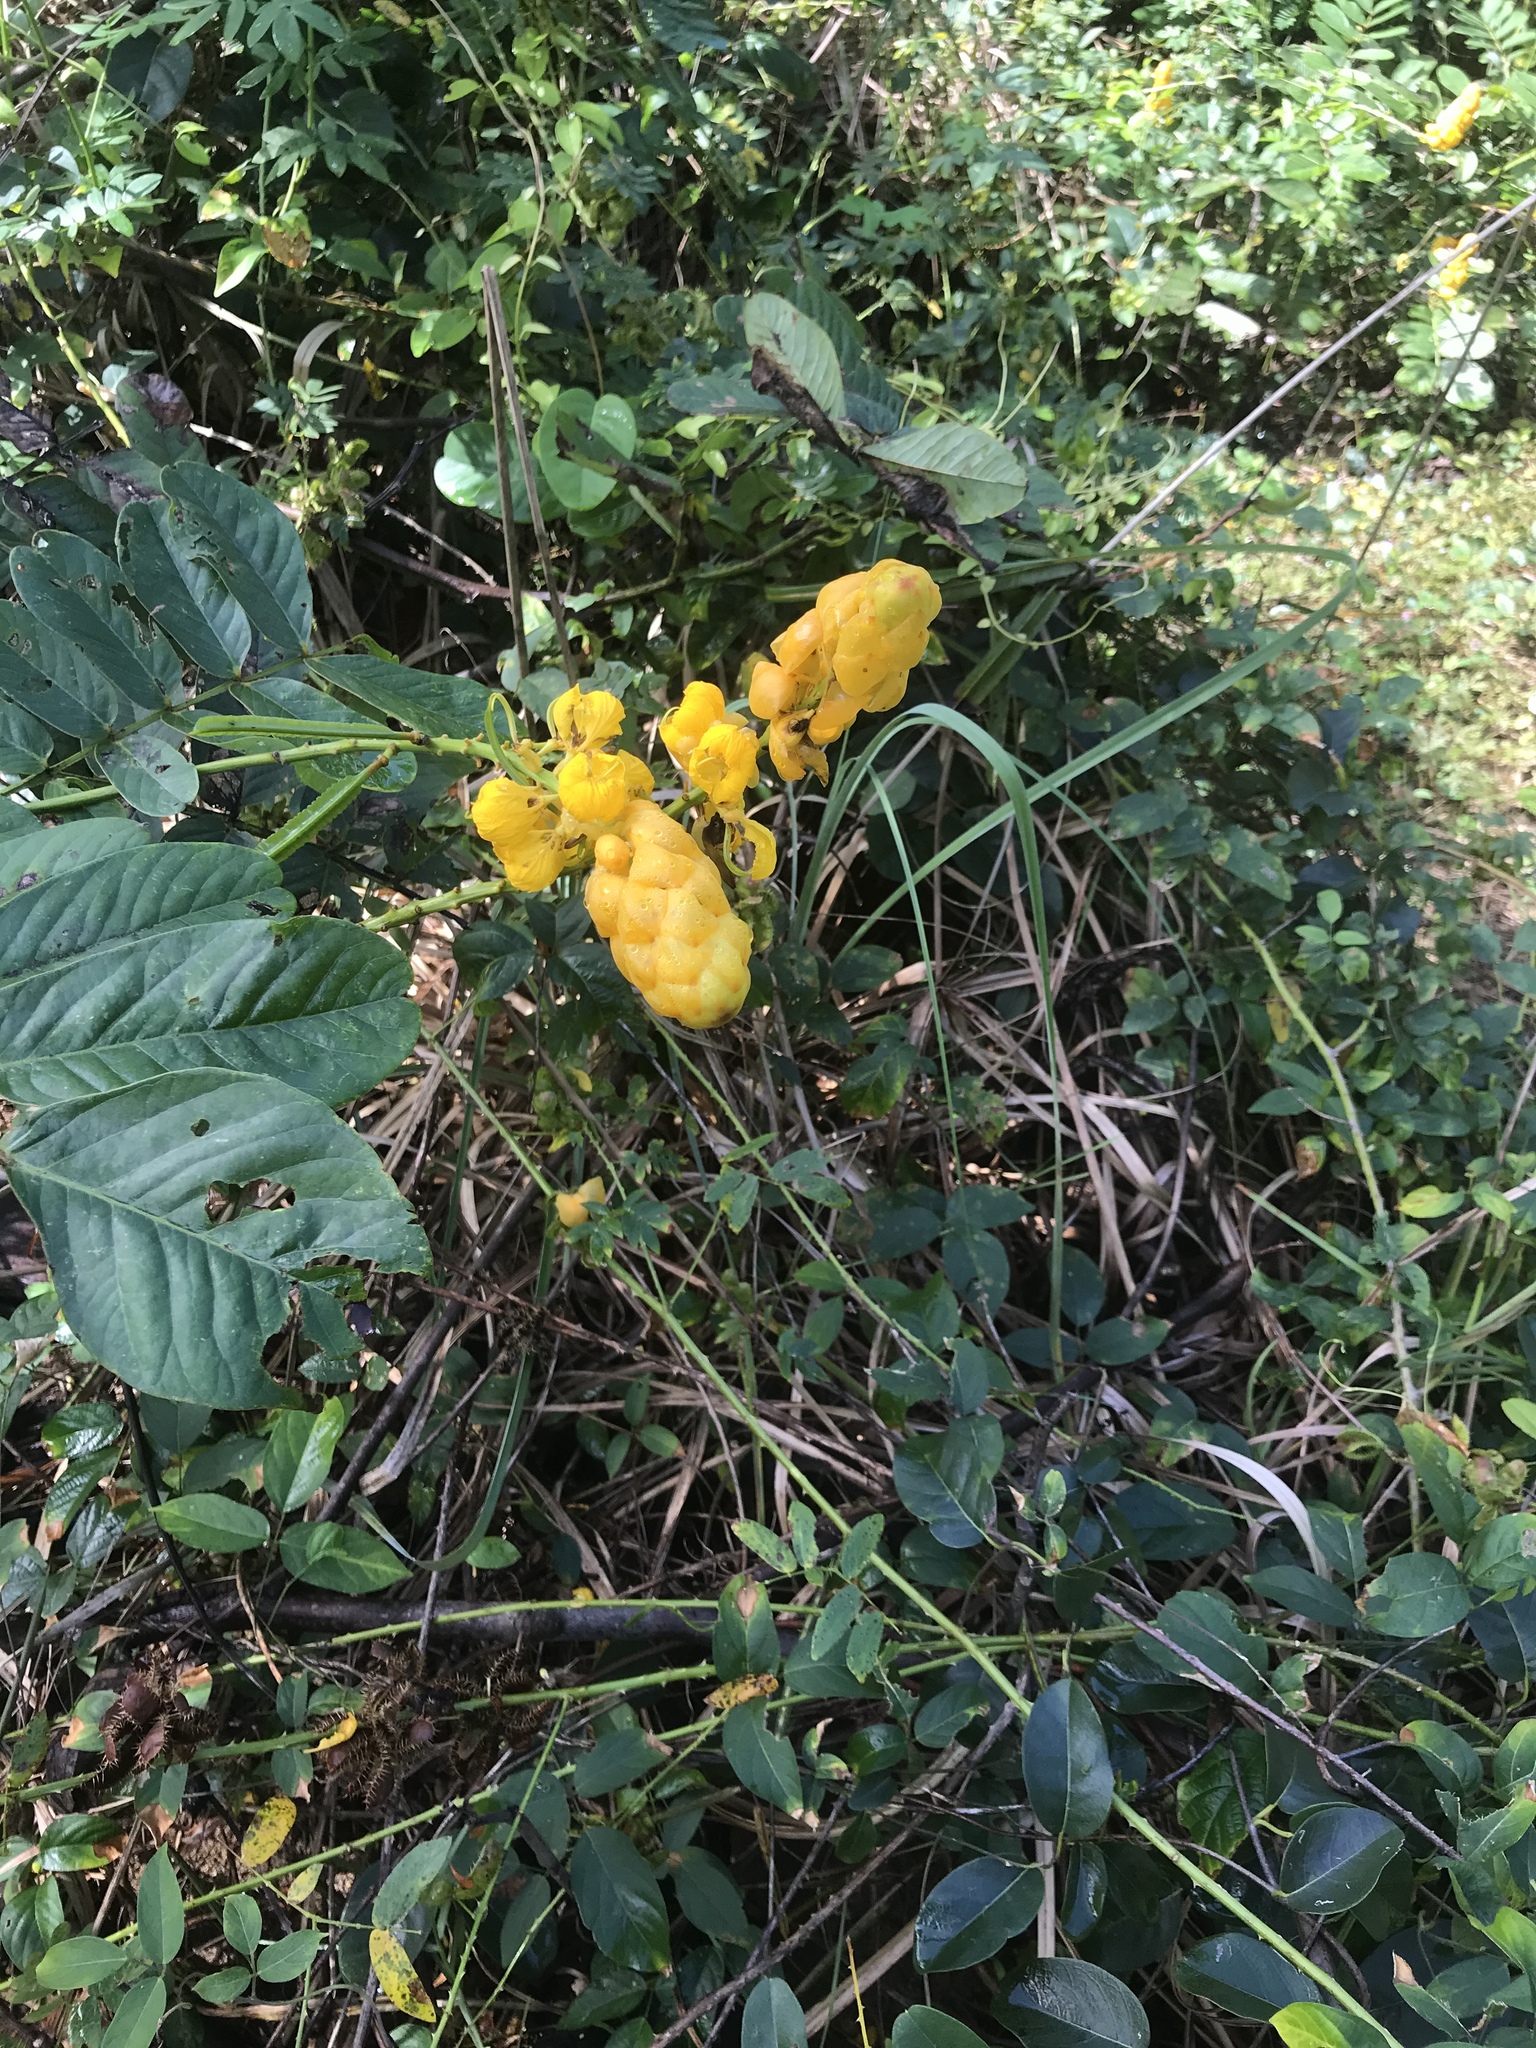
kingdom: Plantae
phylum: Tracheophyta
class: Magnoliopsida
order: Fabales
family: Fabaceae
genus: Senna
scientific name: Senna alata
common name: Emperor's candlesticks
